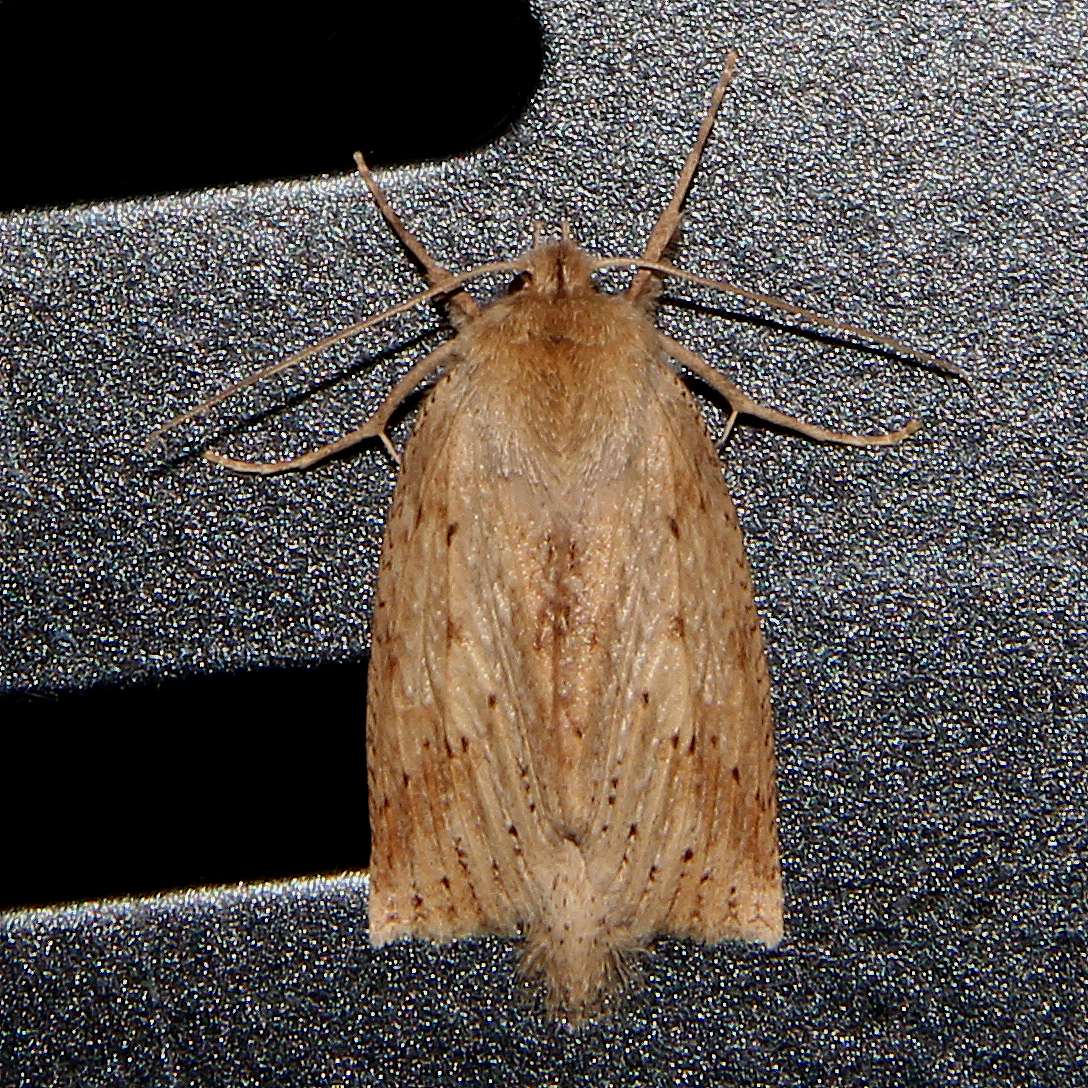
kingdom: Animalia
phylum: Arthropoda
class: Insecta
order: Lepidoptera
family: Geometridae
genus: Declana
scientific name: Declana leptomera
